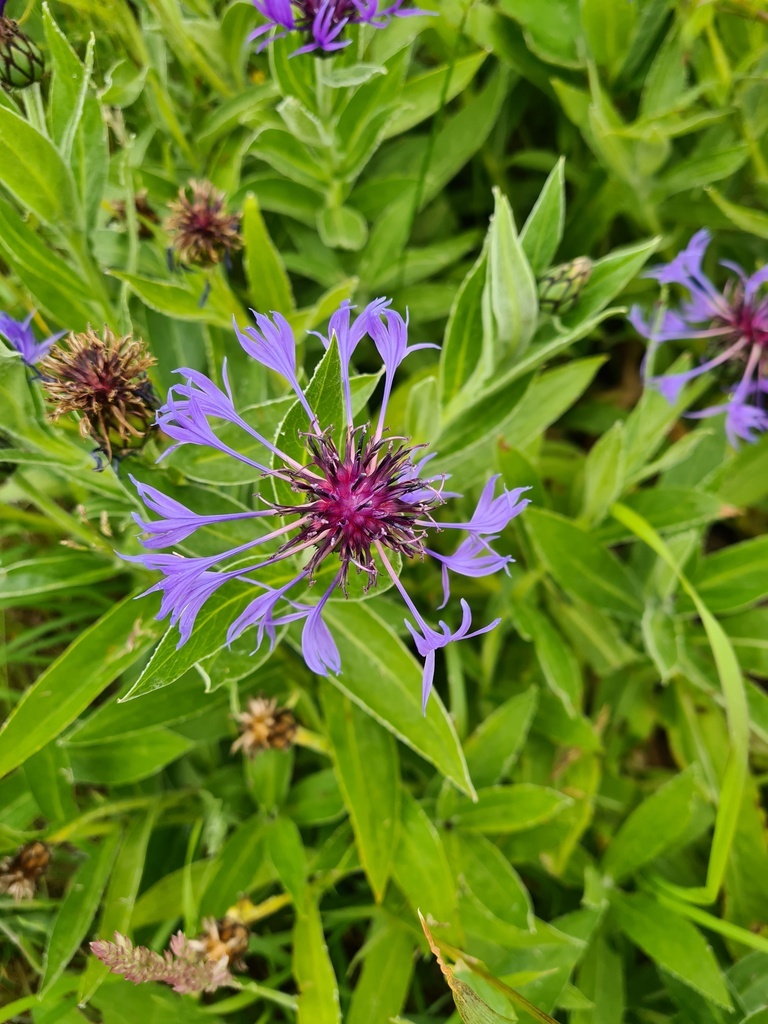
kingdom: Plantae
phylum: Tracheophyta
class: Magnoliopsida
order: Asterales
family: Asteraceae
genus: Centaurea
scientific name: Centaurea montana
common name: Perennial cornflower
